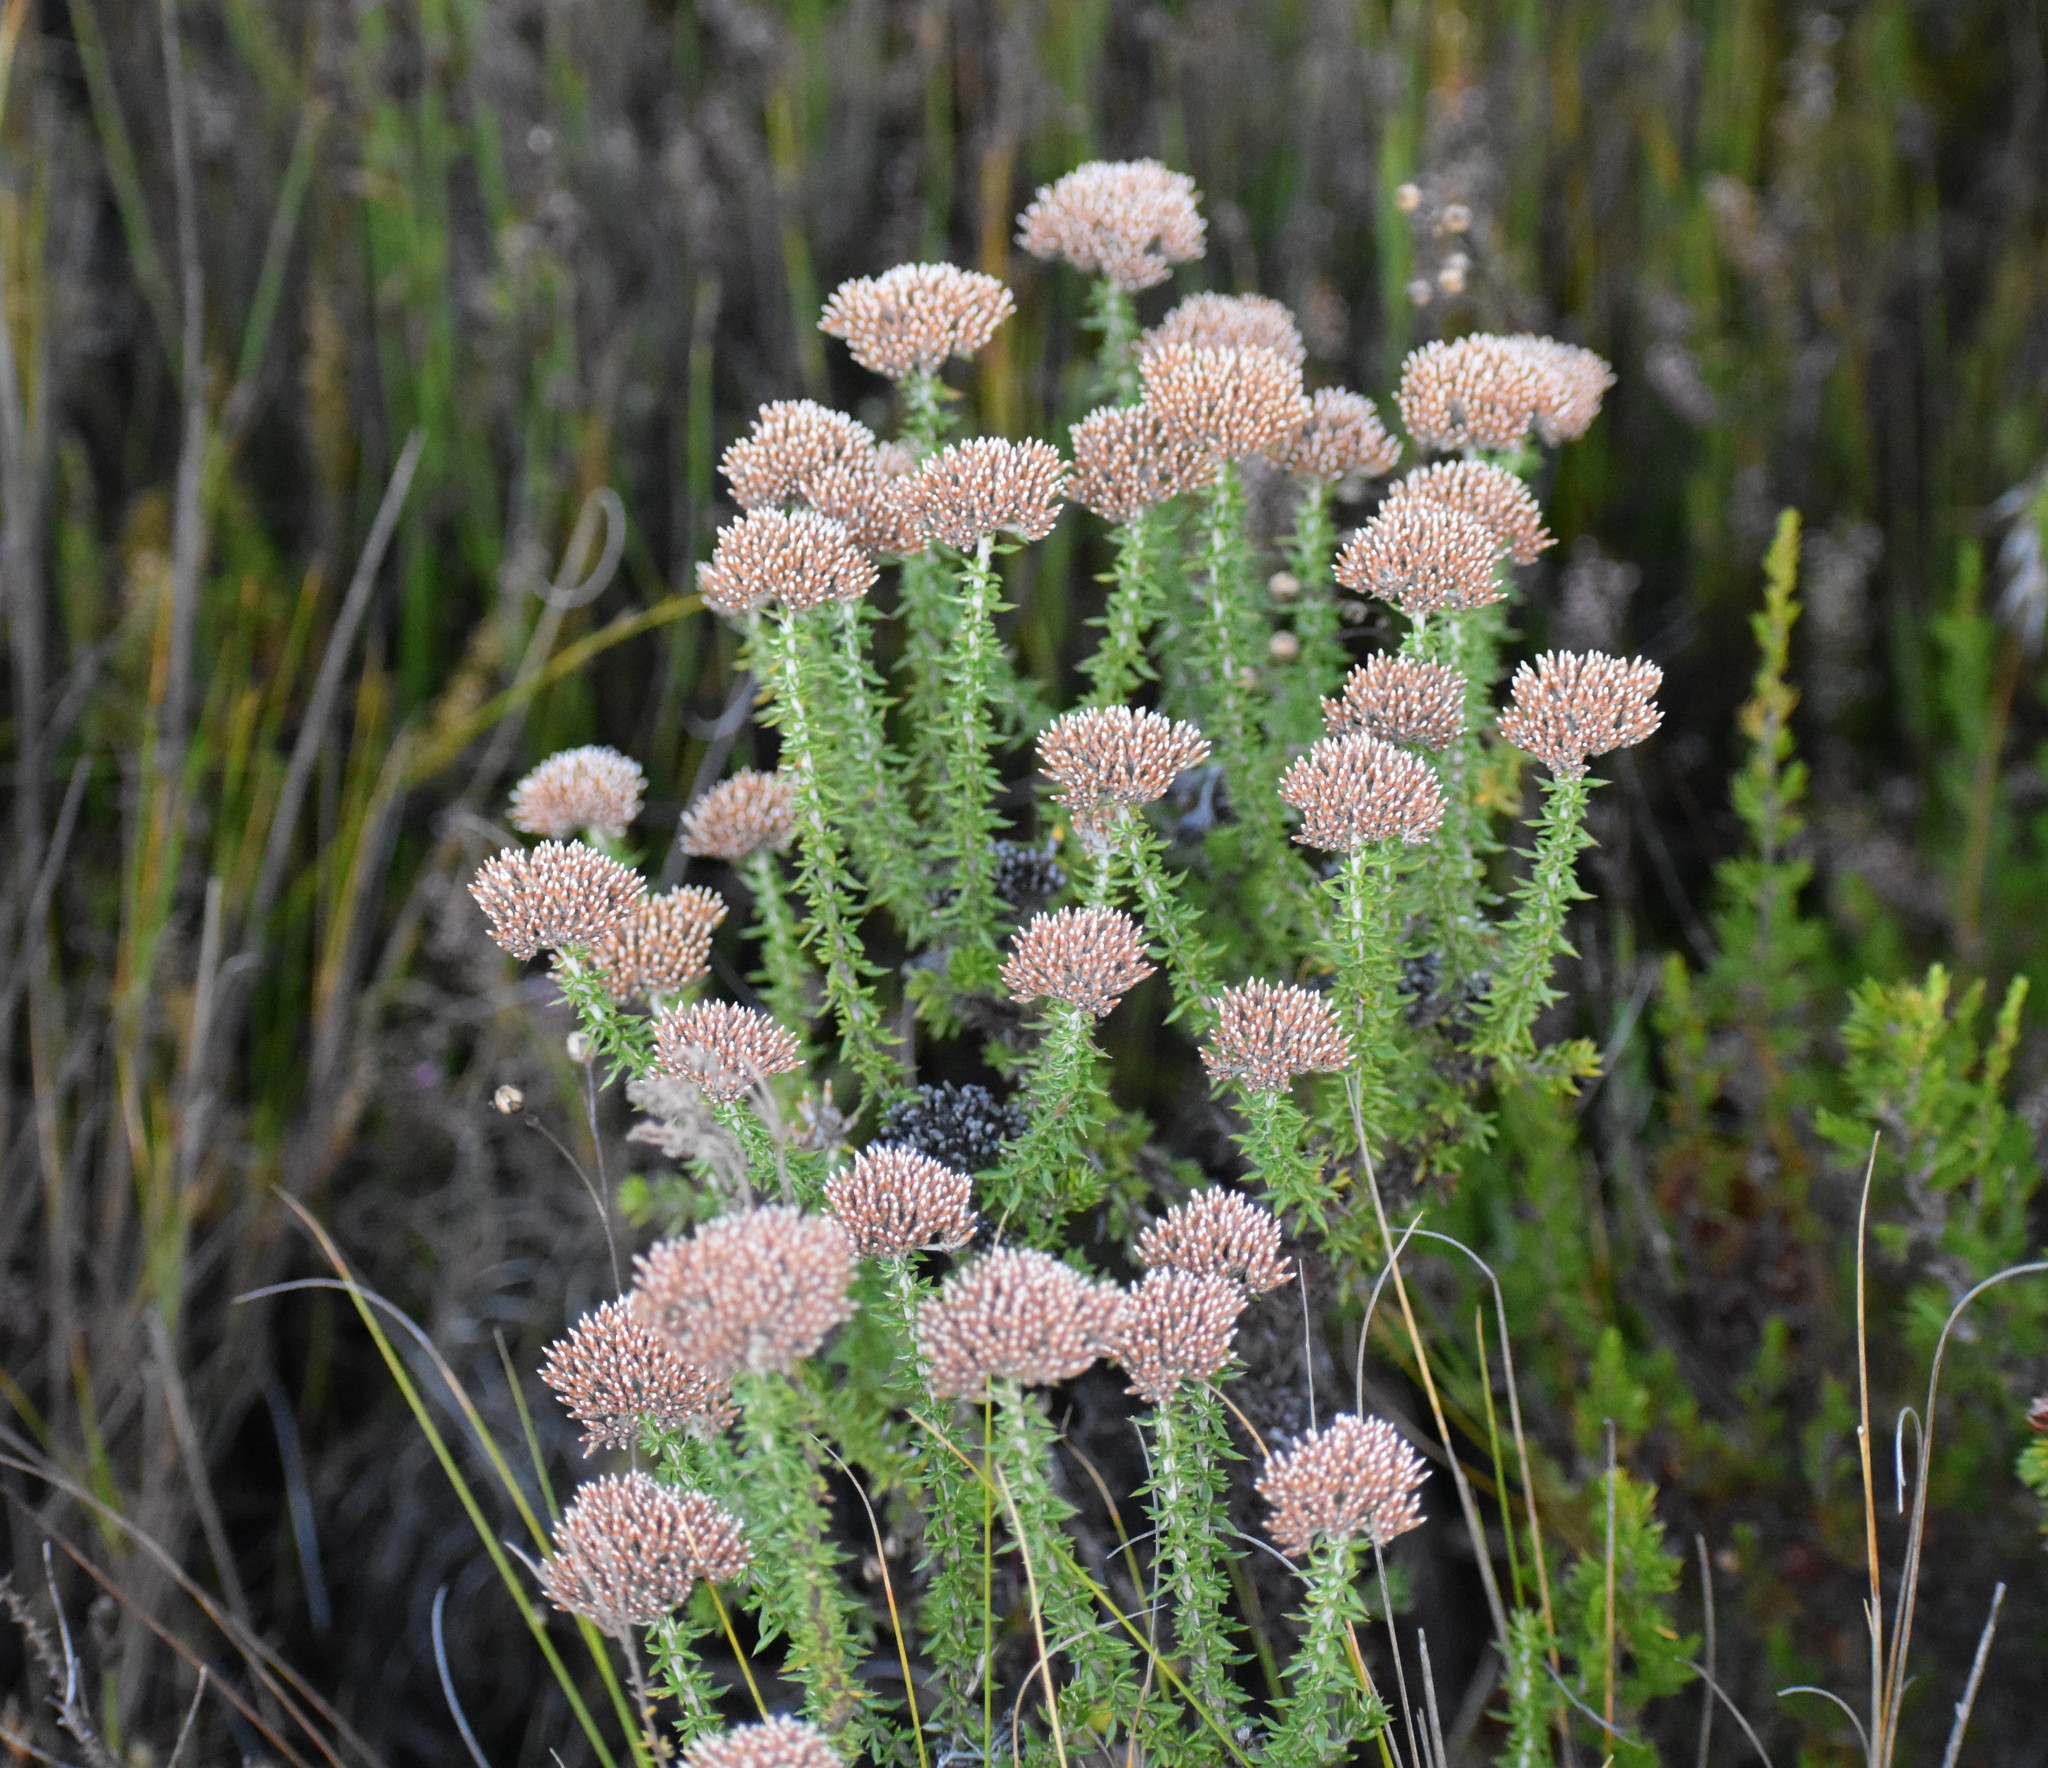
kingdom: Plantae
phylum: Tracheophyta
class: Magnoliopsida
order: Asterales
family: Asteraceae
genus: Metalasia
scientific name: Metalasia acuta
